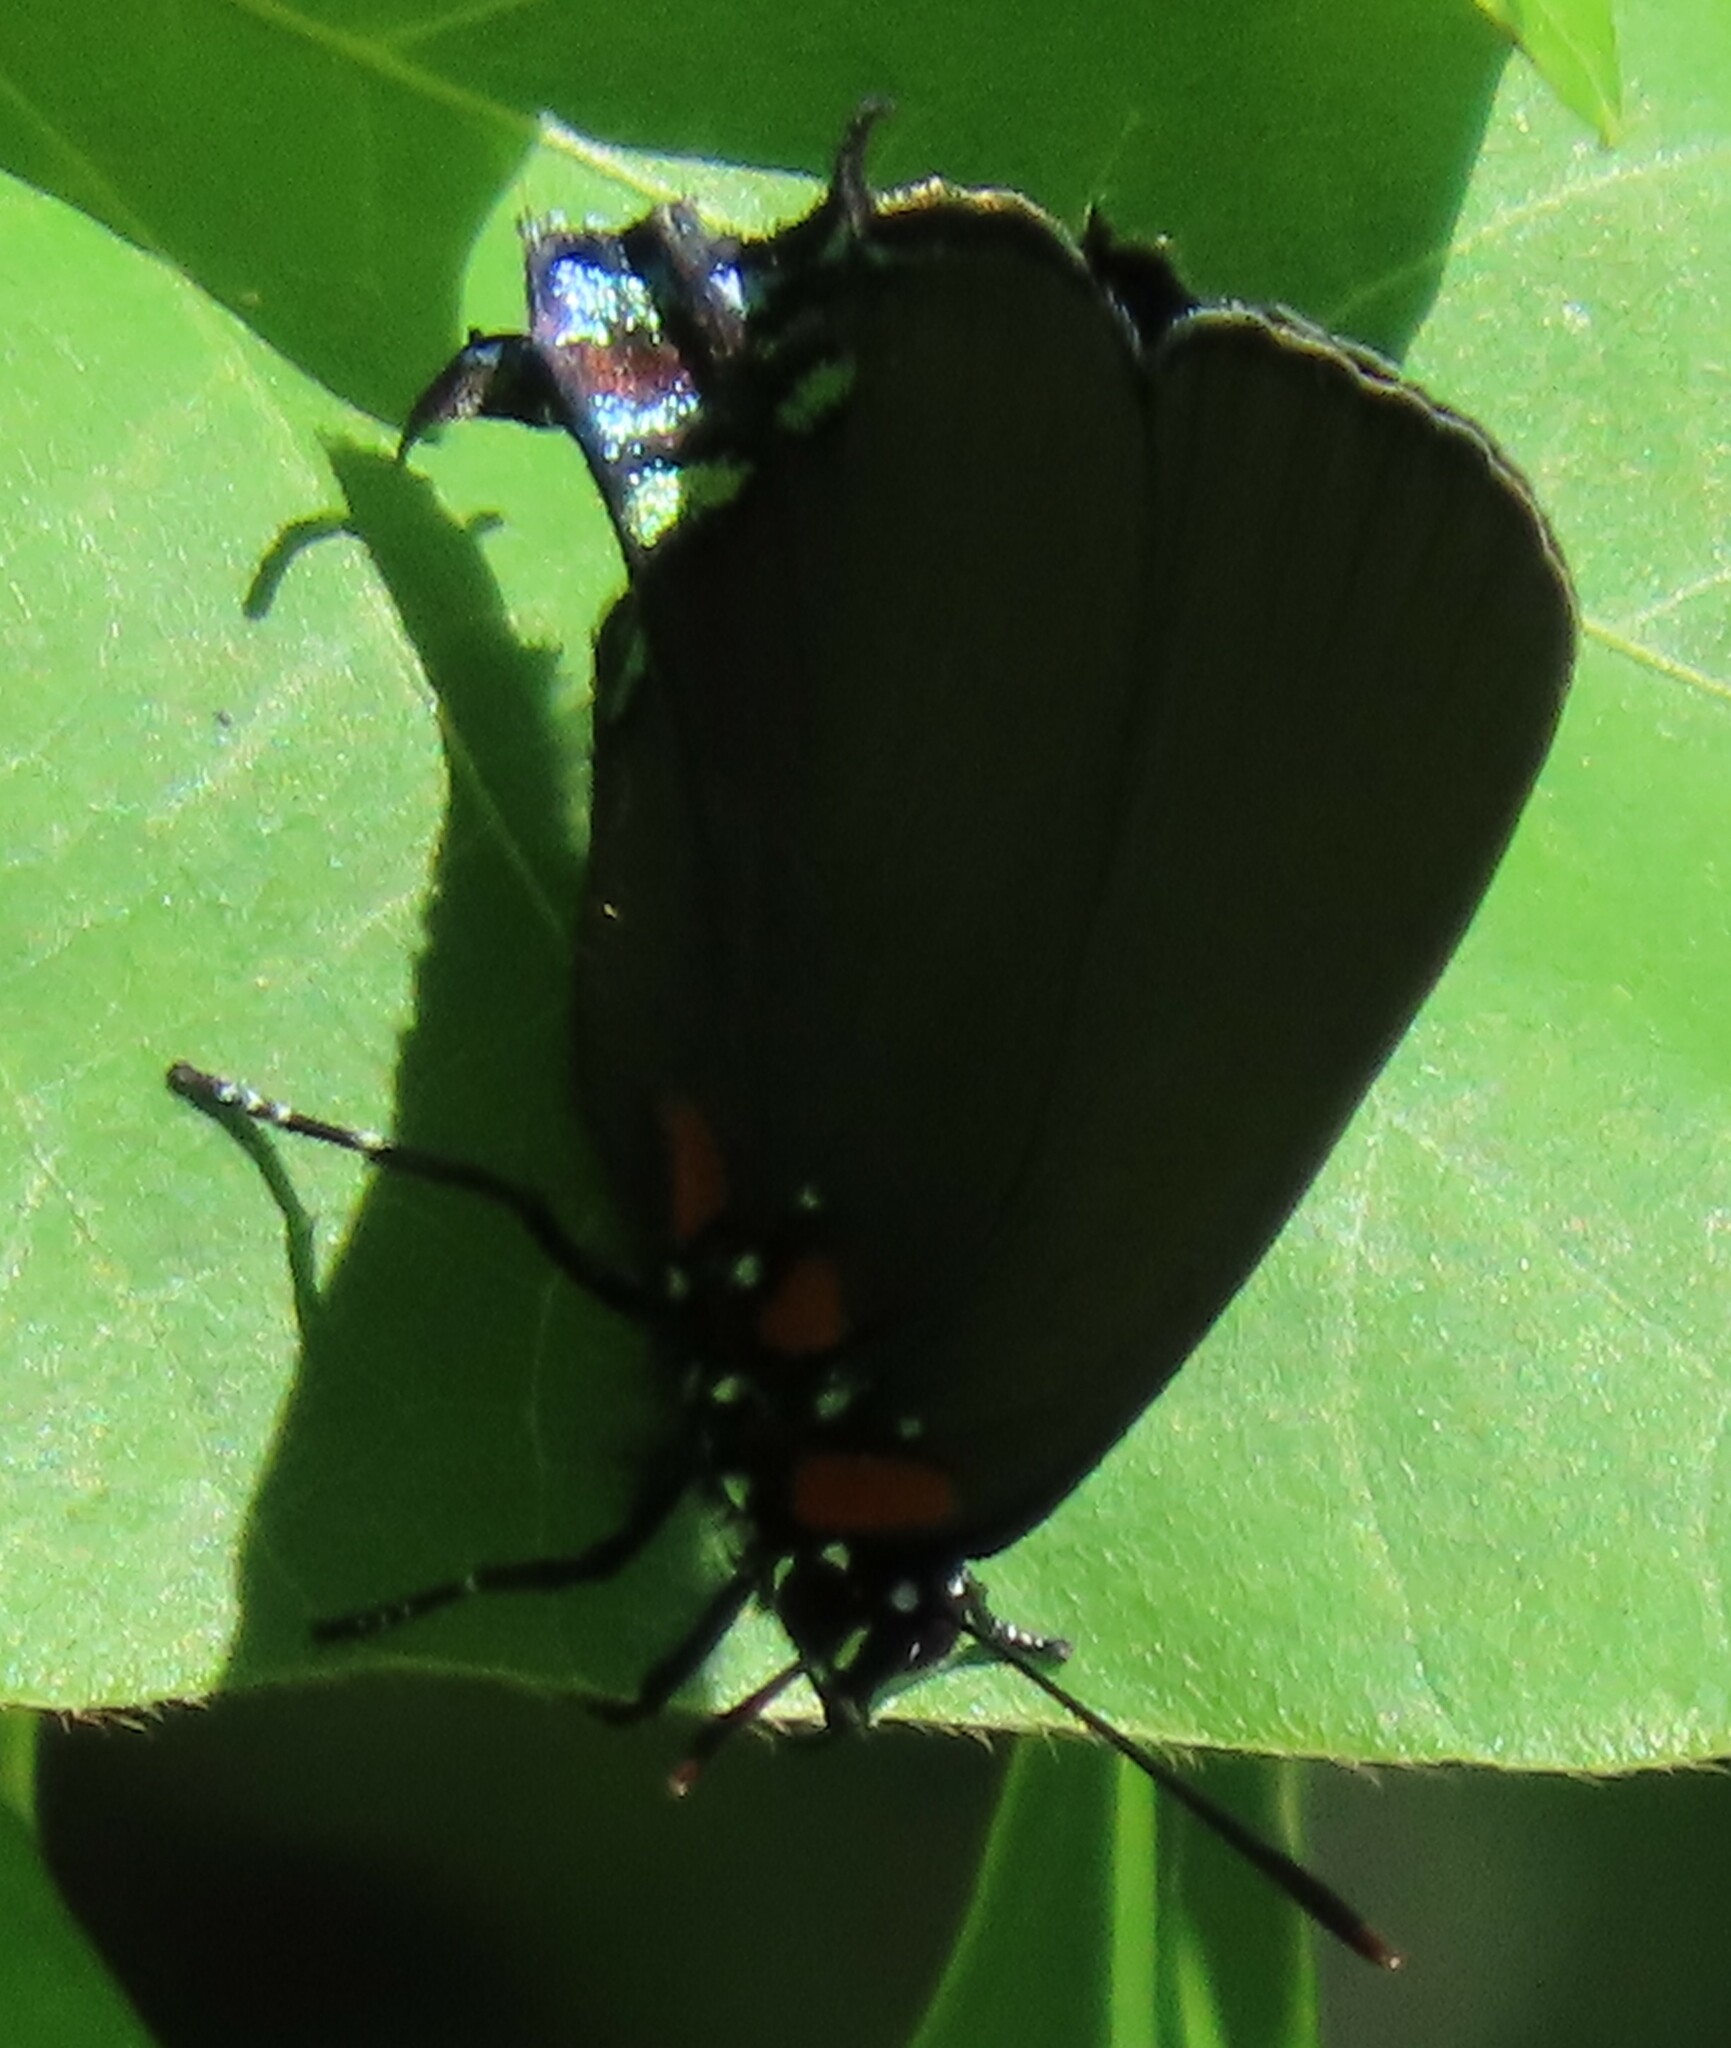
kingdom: Animalia
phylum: Arthropoda
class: Insecta
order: Lepidoptera
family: Lycaenidae
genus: Atlides
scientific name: Atlides halesus
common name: Great purple hairstreak
